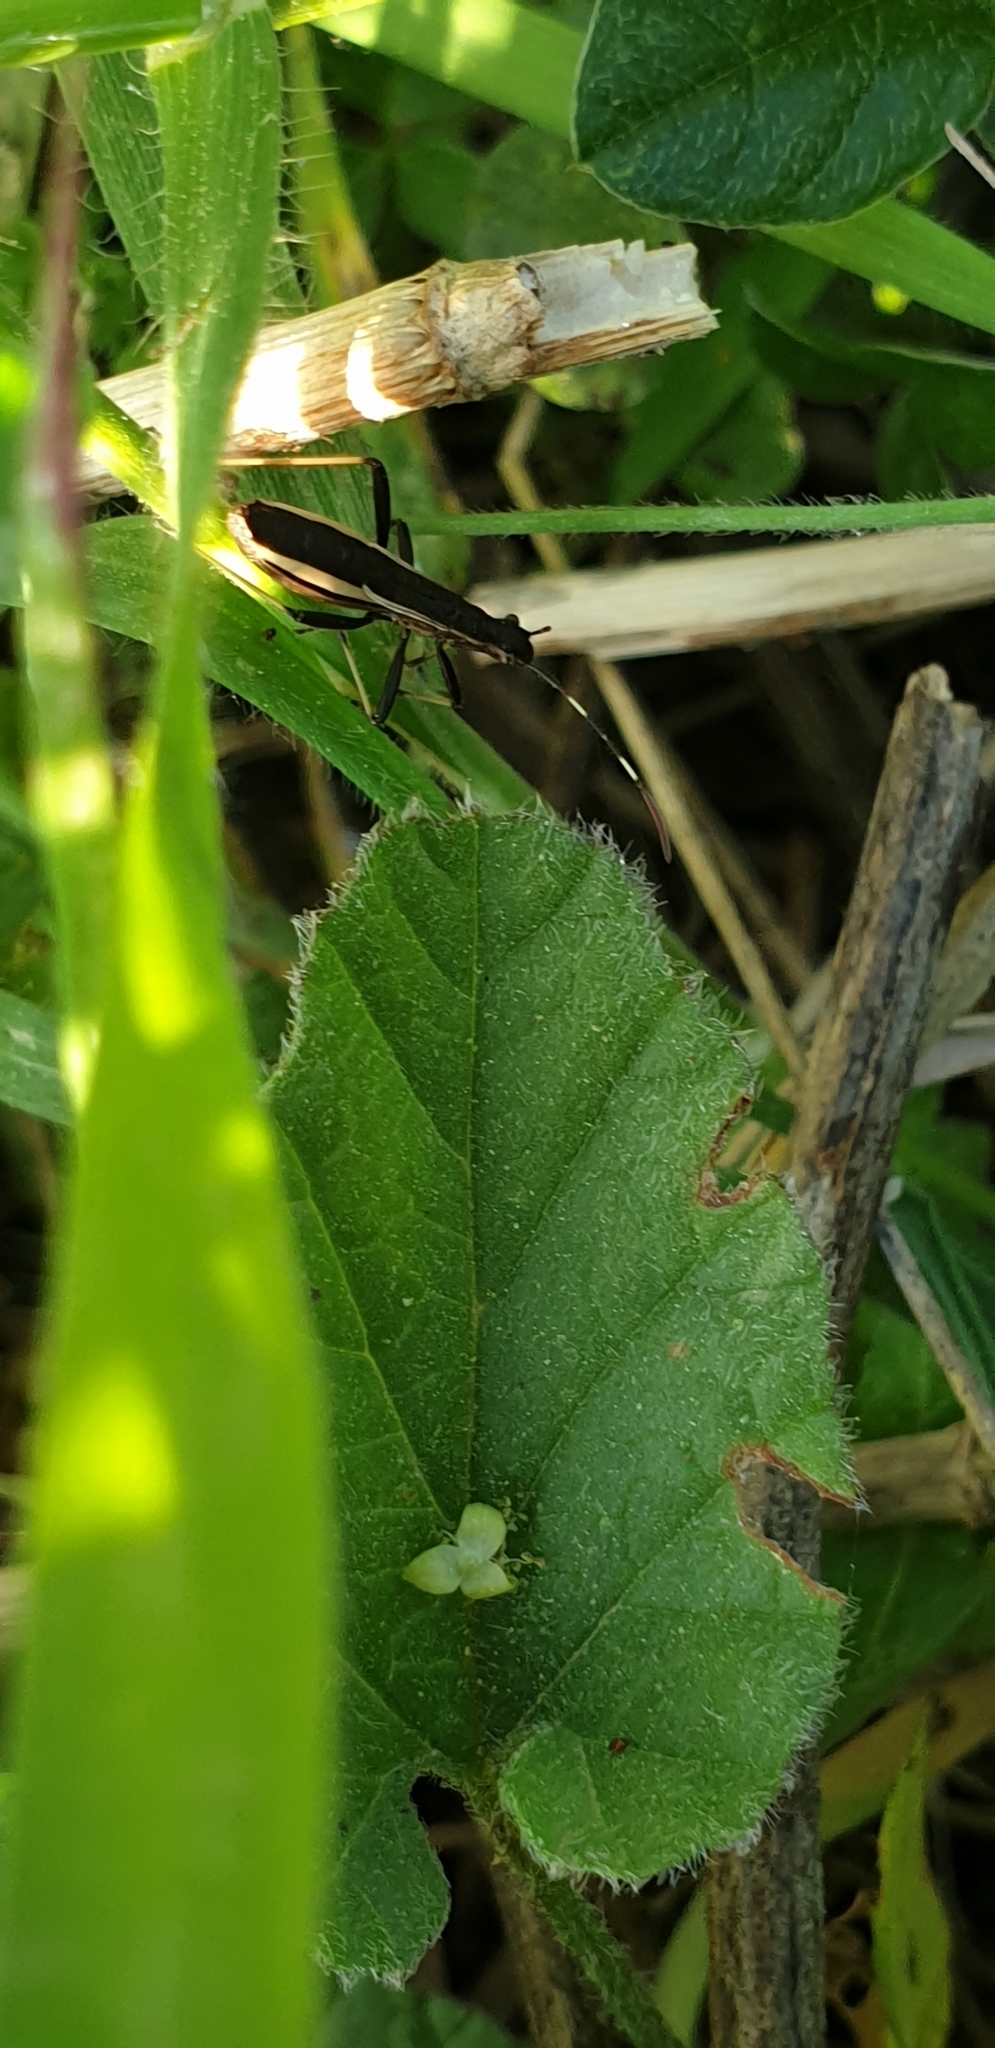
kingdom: Animalia
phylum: Arthropoda
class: Insecta
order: Hemiptera
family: Alydidae
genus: Micrelytra
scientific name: Micrelytra fossularum
